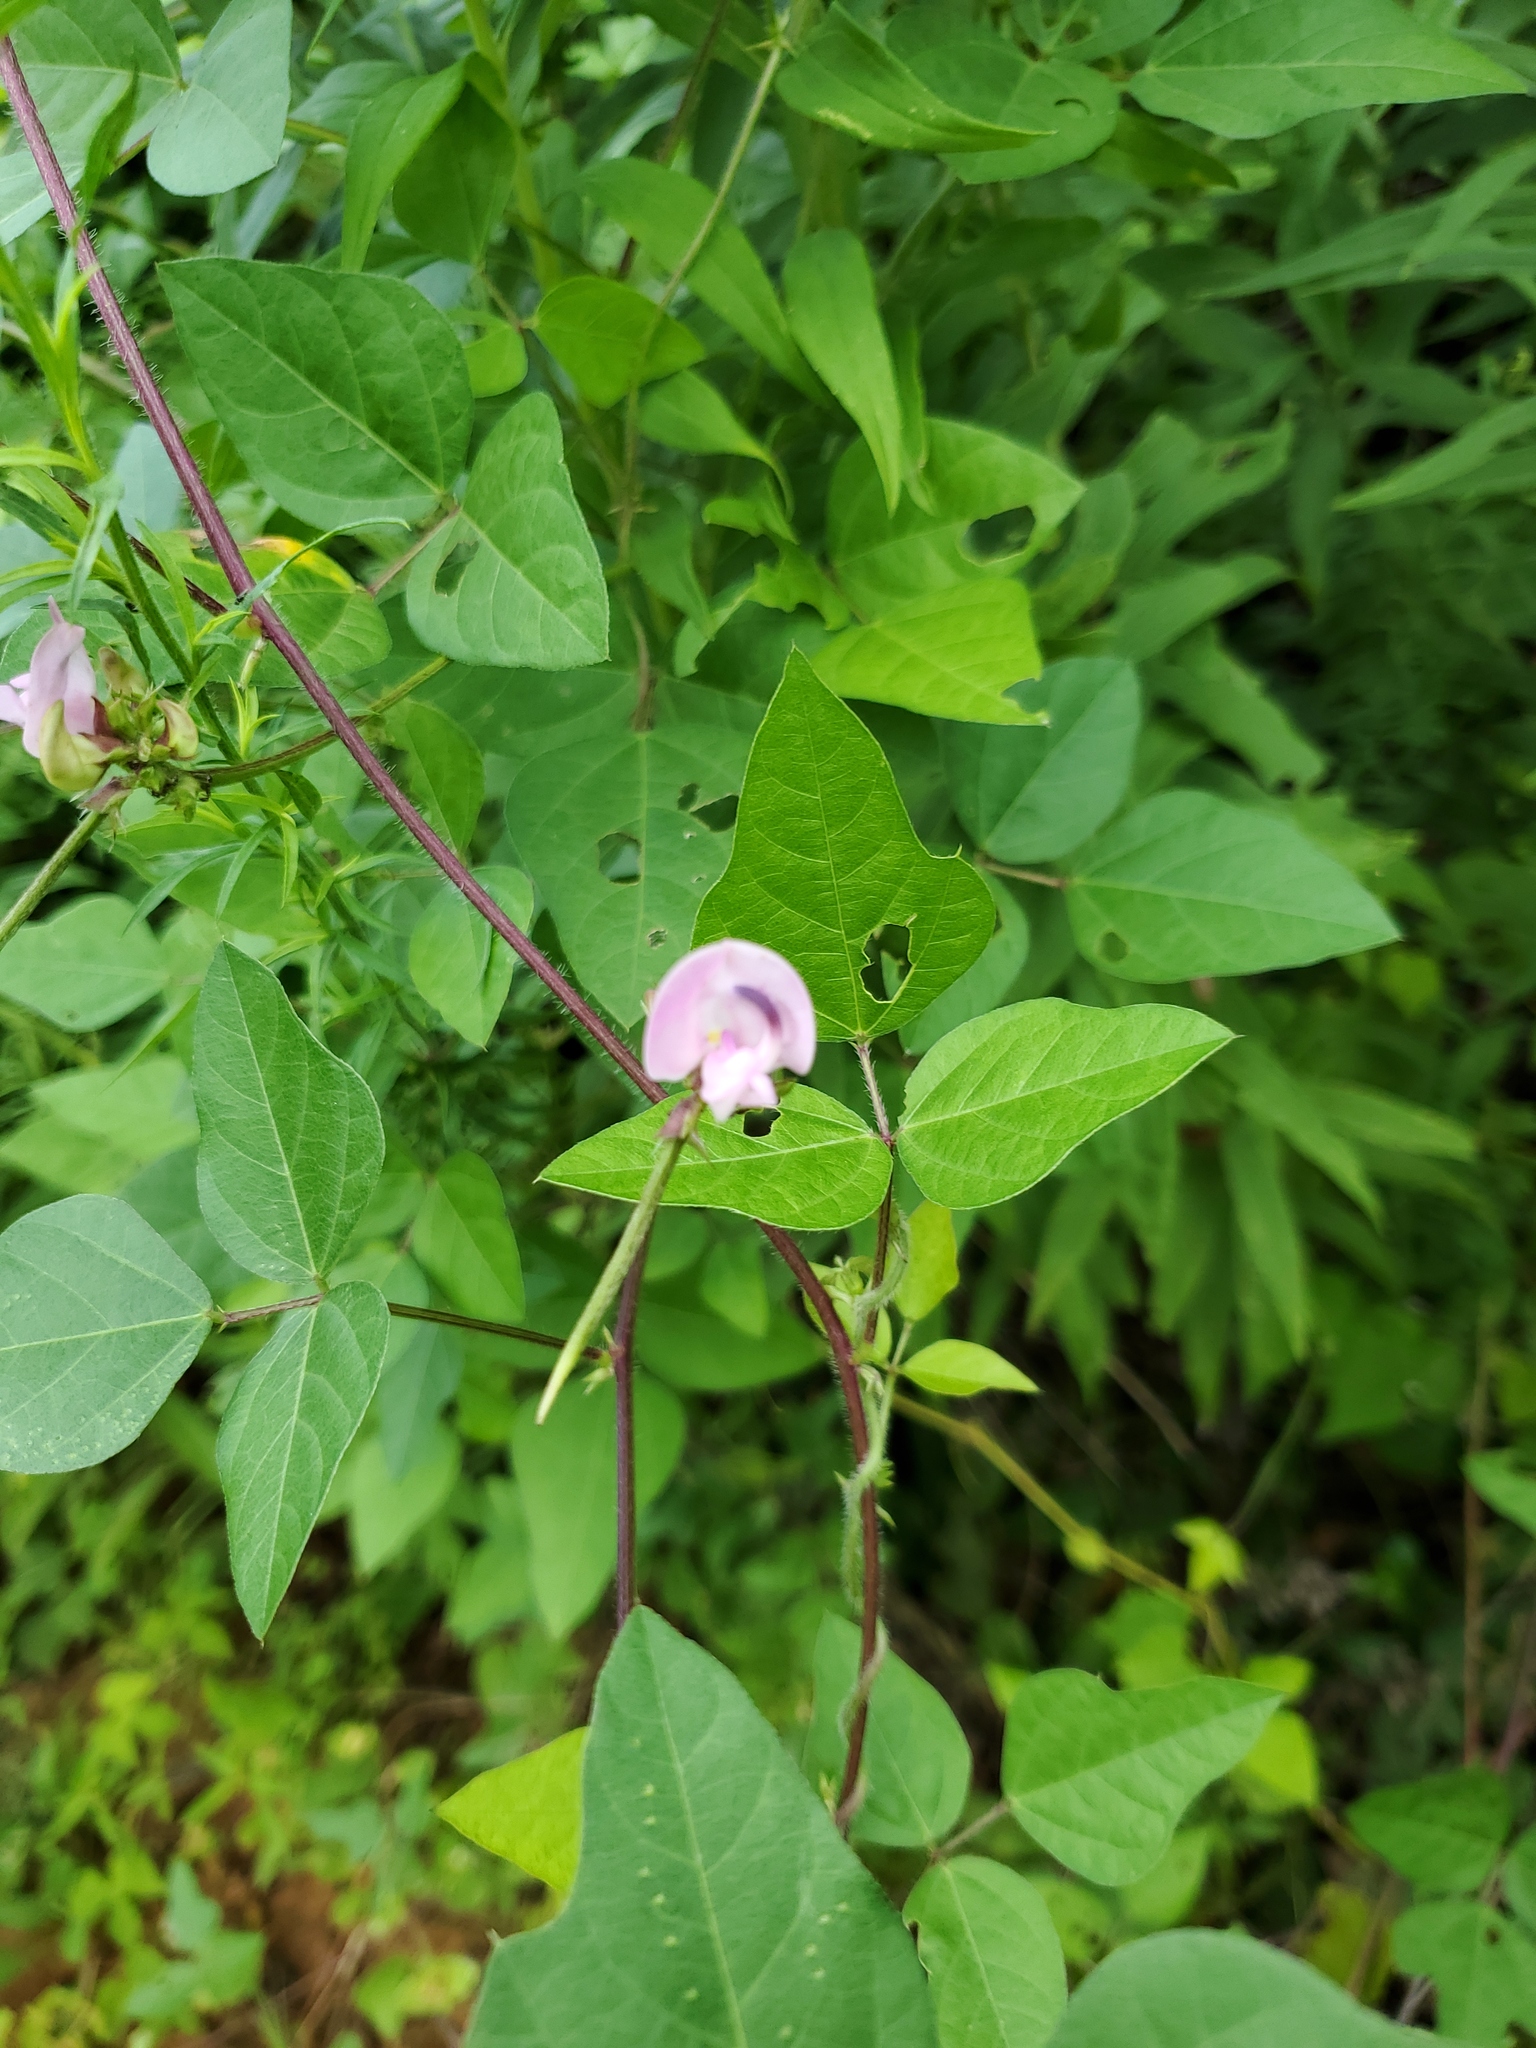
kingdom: Plantae
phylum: Tracheophyta
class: Magnoliopsida
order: Fabales
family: Fabaceae
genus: Strophostyles
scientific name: Strophostyles helvola
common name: Trailing wild bean
